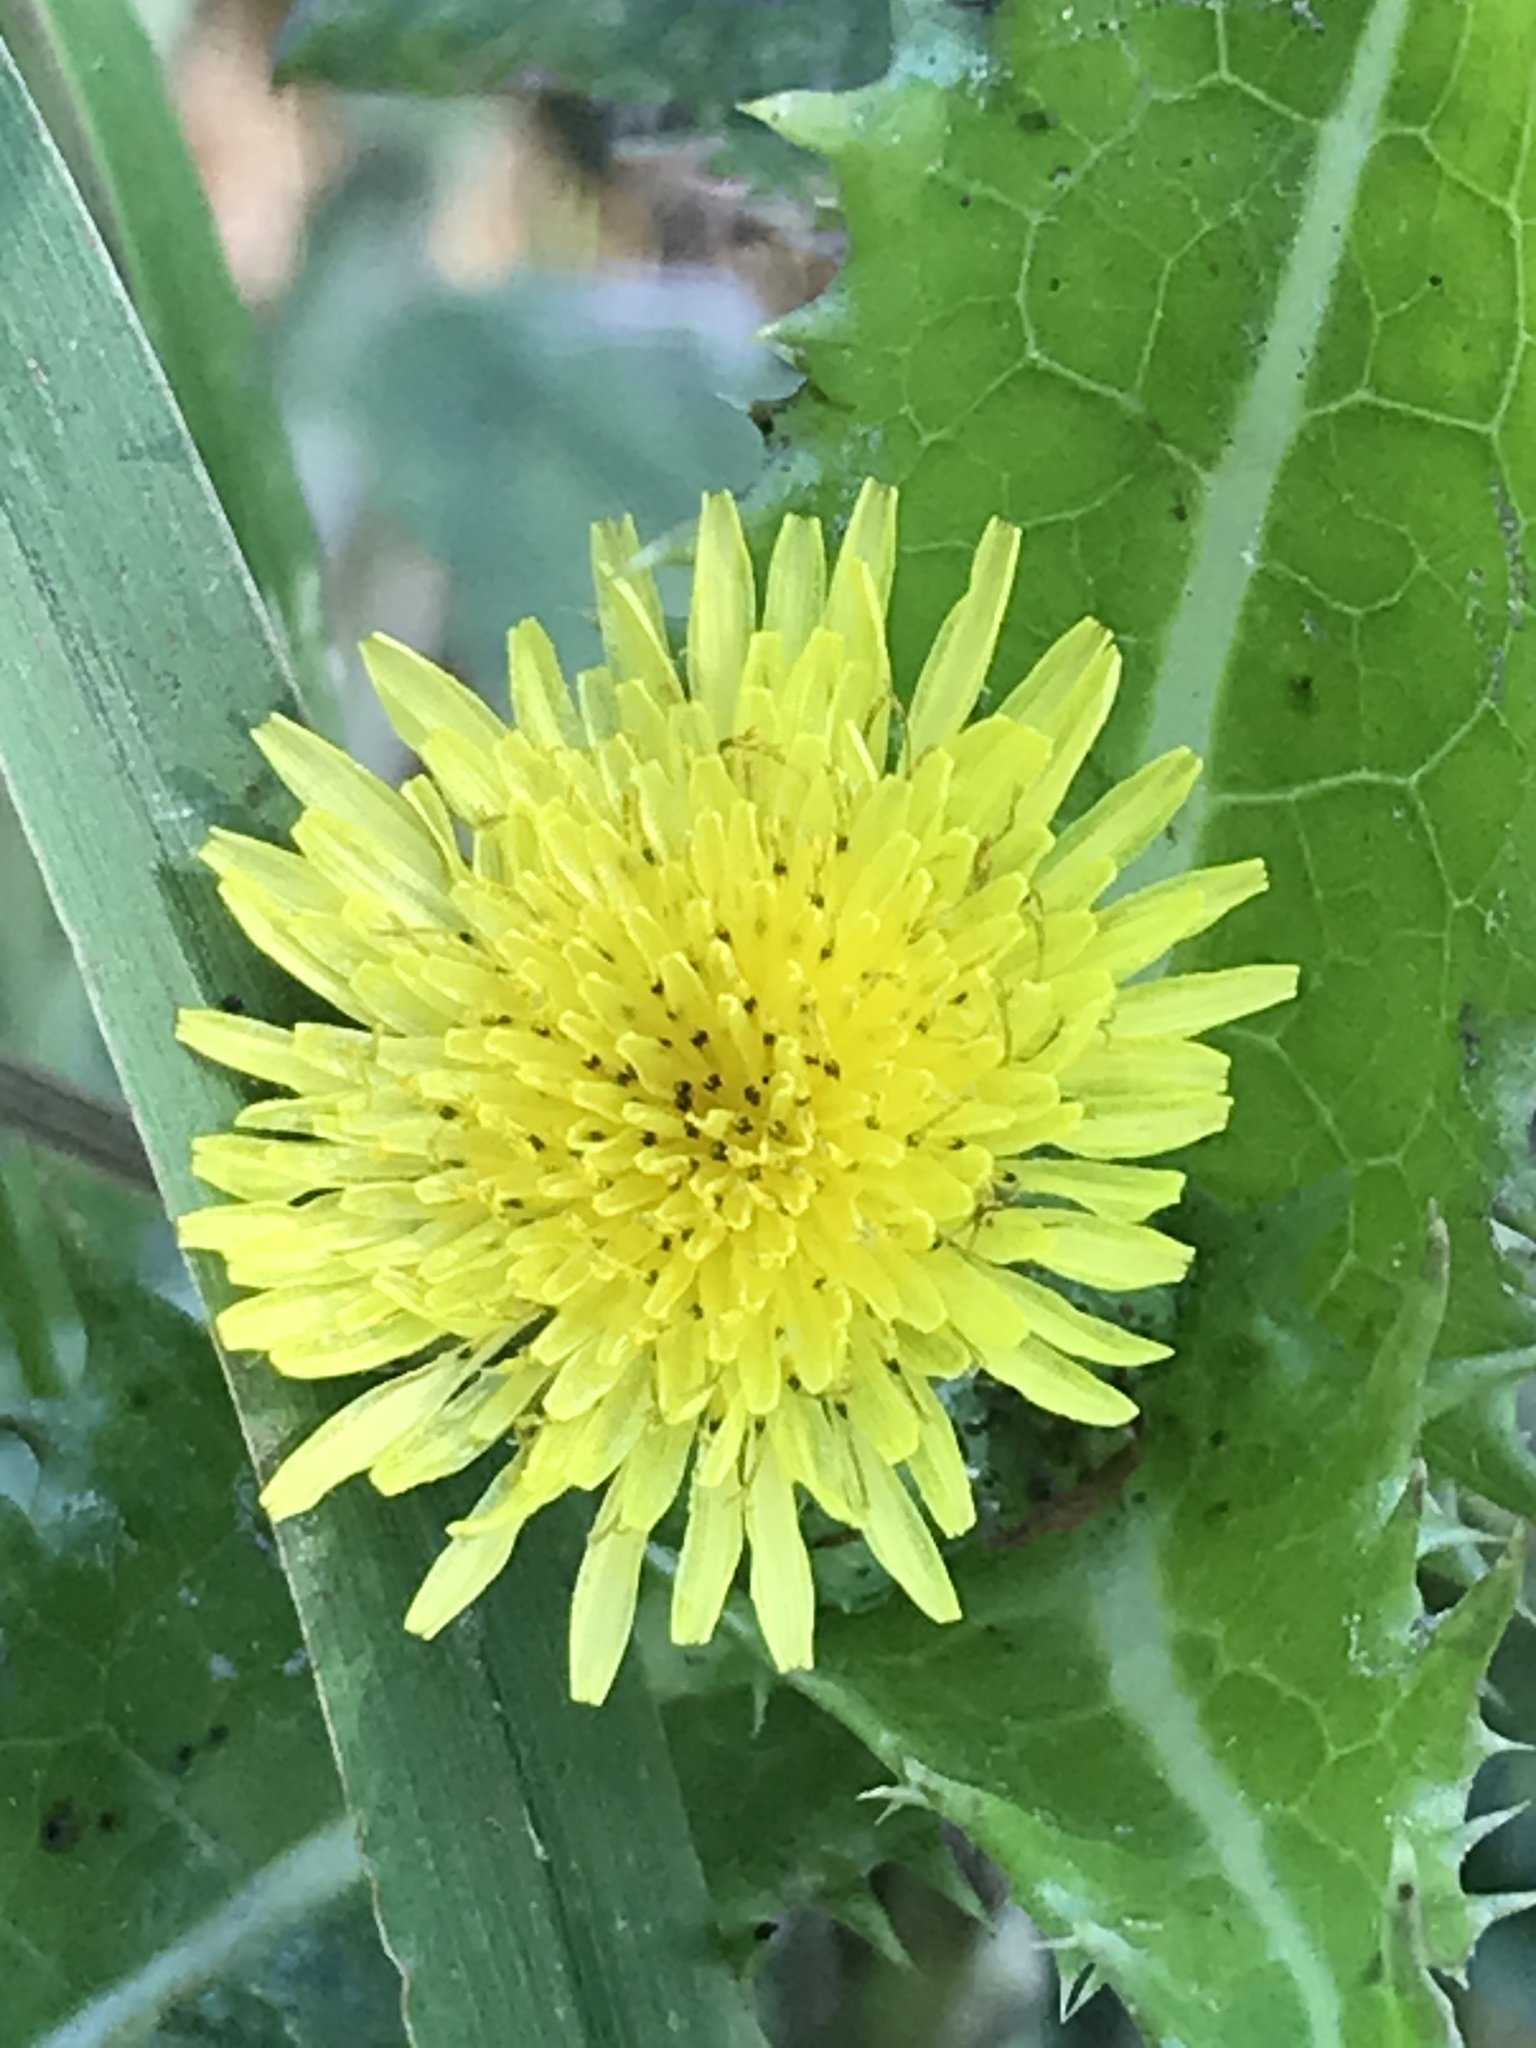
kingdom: Plantae
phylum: Tracheophyta
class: Magnoliopsida
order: Asterales
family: Asteraceae
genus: Sonchus
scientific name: Sonchus asper
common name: Prickly sow-thistle
